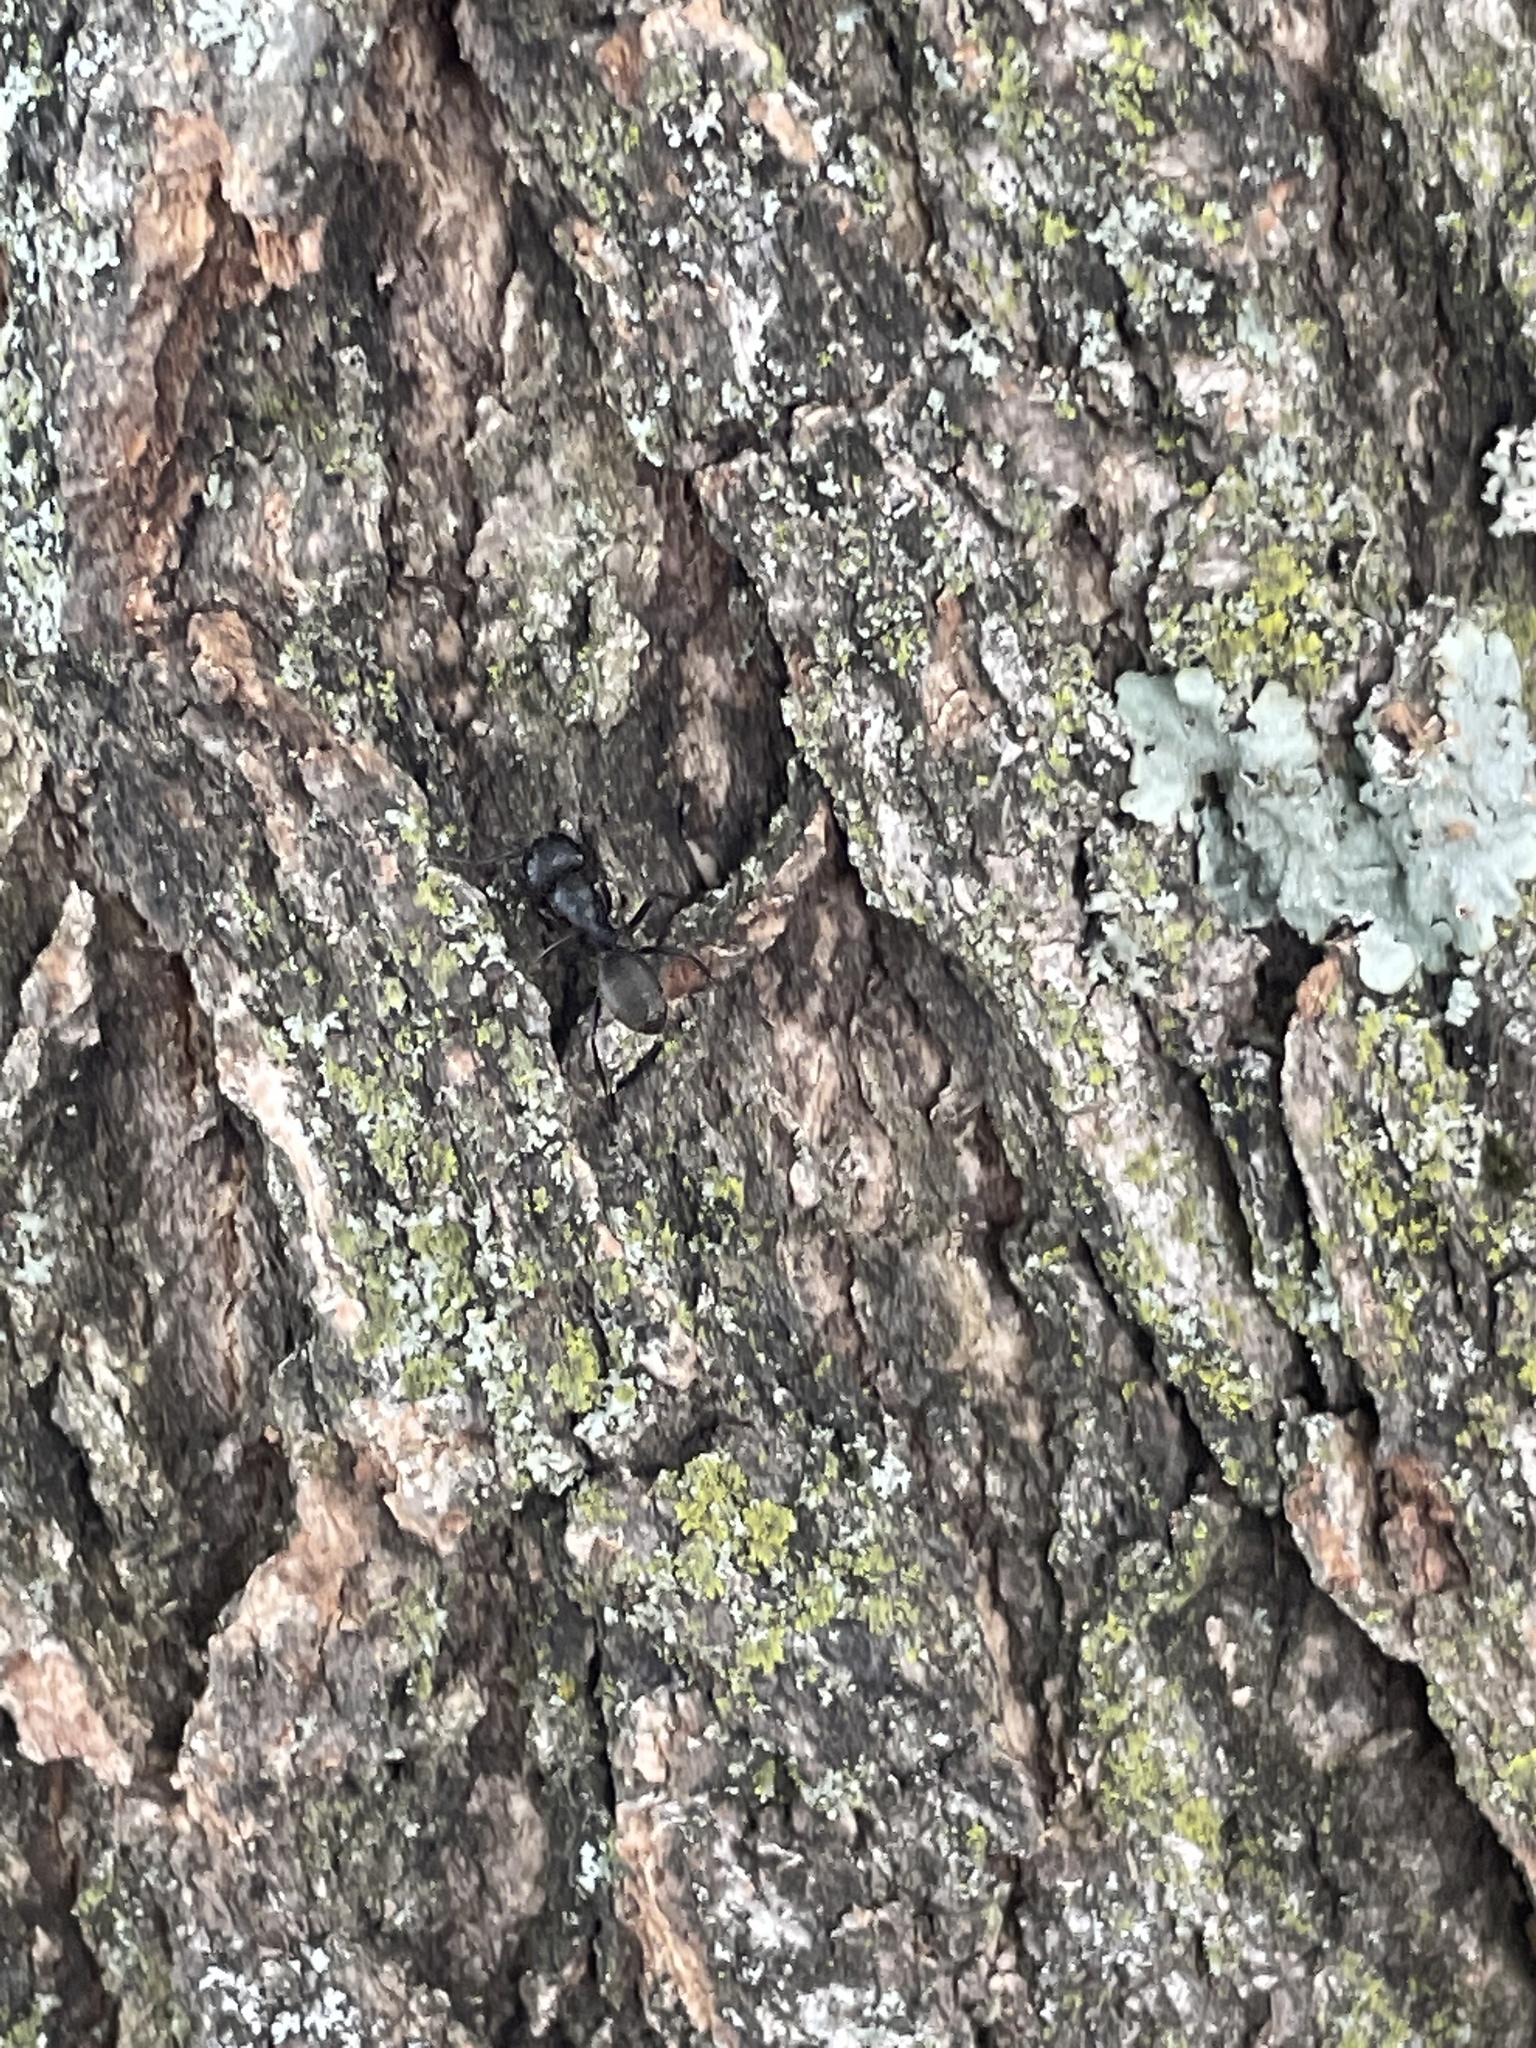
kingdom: Animalia
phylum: Arthropoda
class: Insecta
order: Hymenoptera
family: Formicidae
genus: Camponotus
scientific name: Camponotus pennsylvanicus
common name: Black carpenter ant
